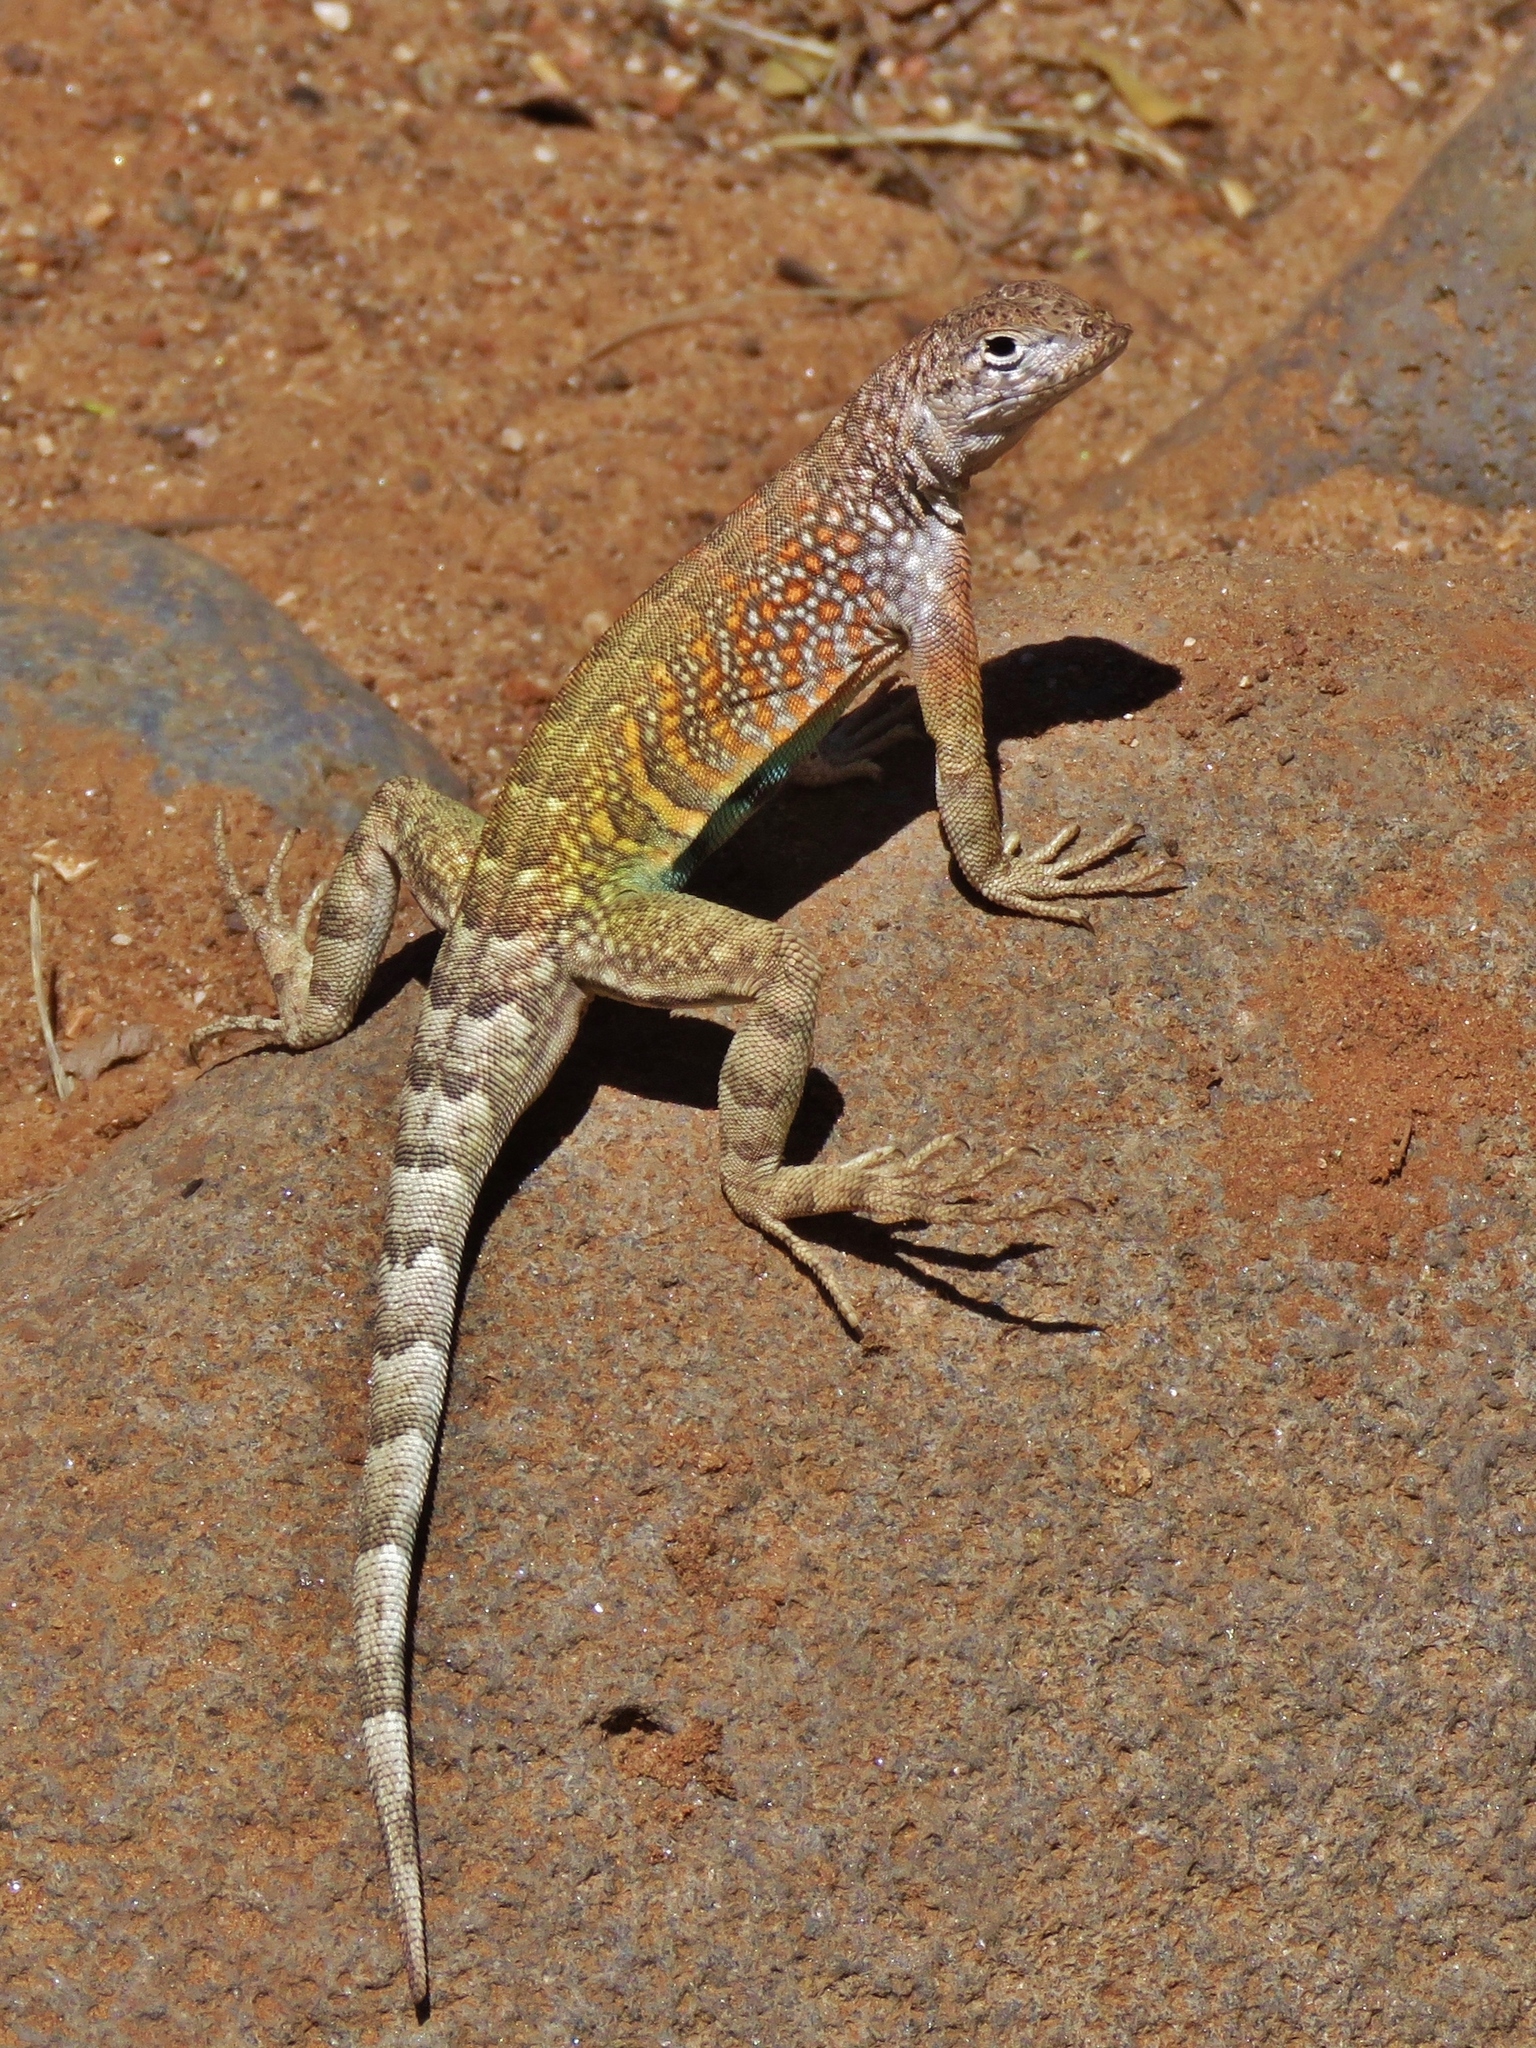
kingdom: Animalia
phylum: Chordata
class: Squamata
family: Phrynosomatidae
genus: Cophosaurus
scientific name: Cophosaurus texanus
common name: Greater earless lizard
